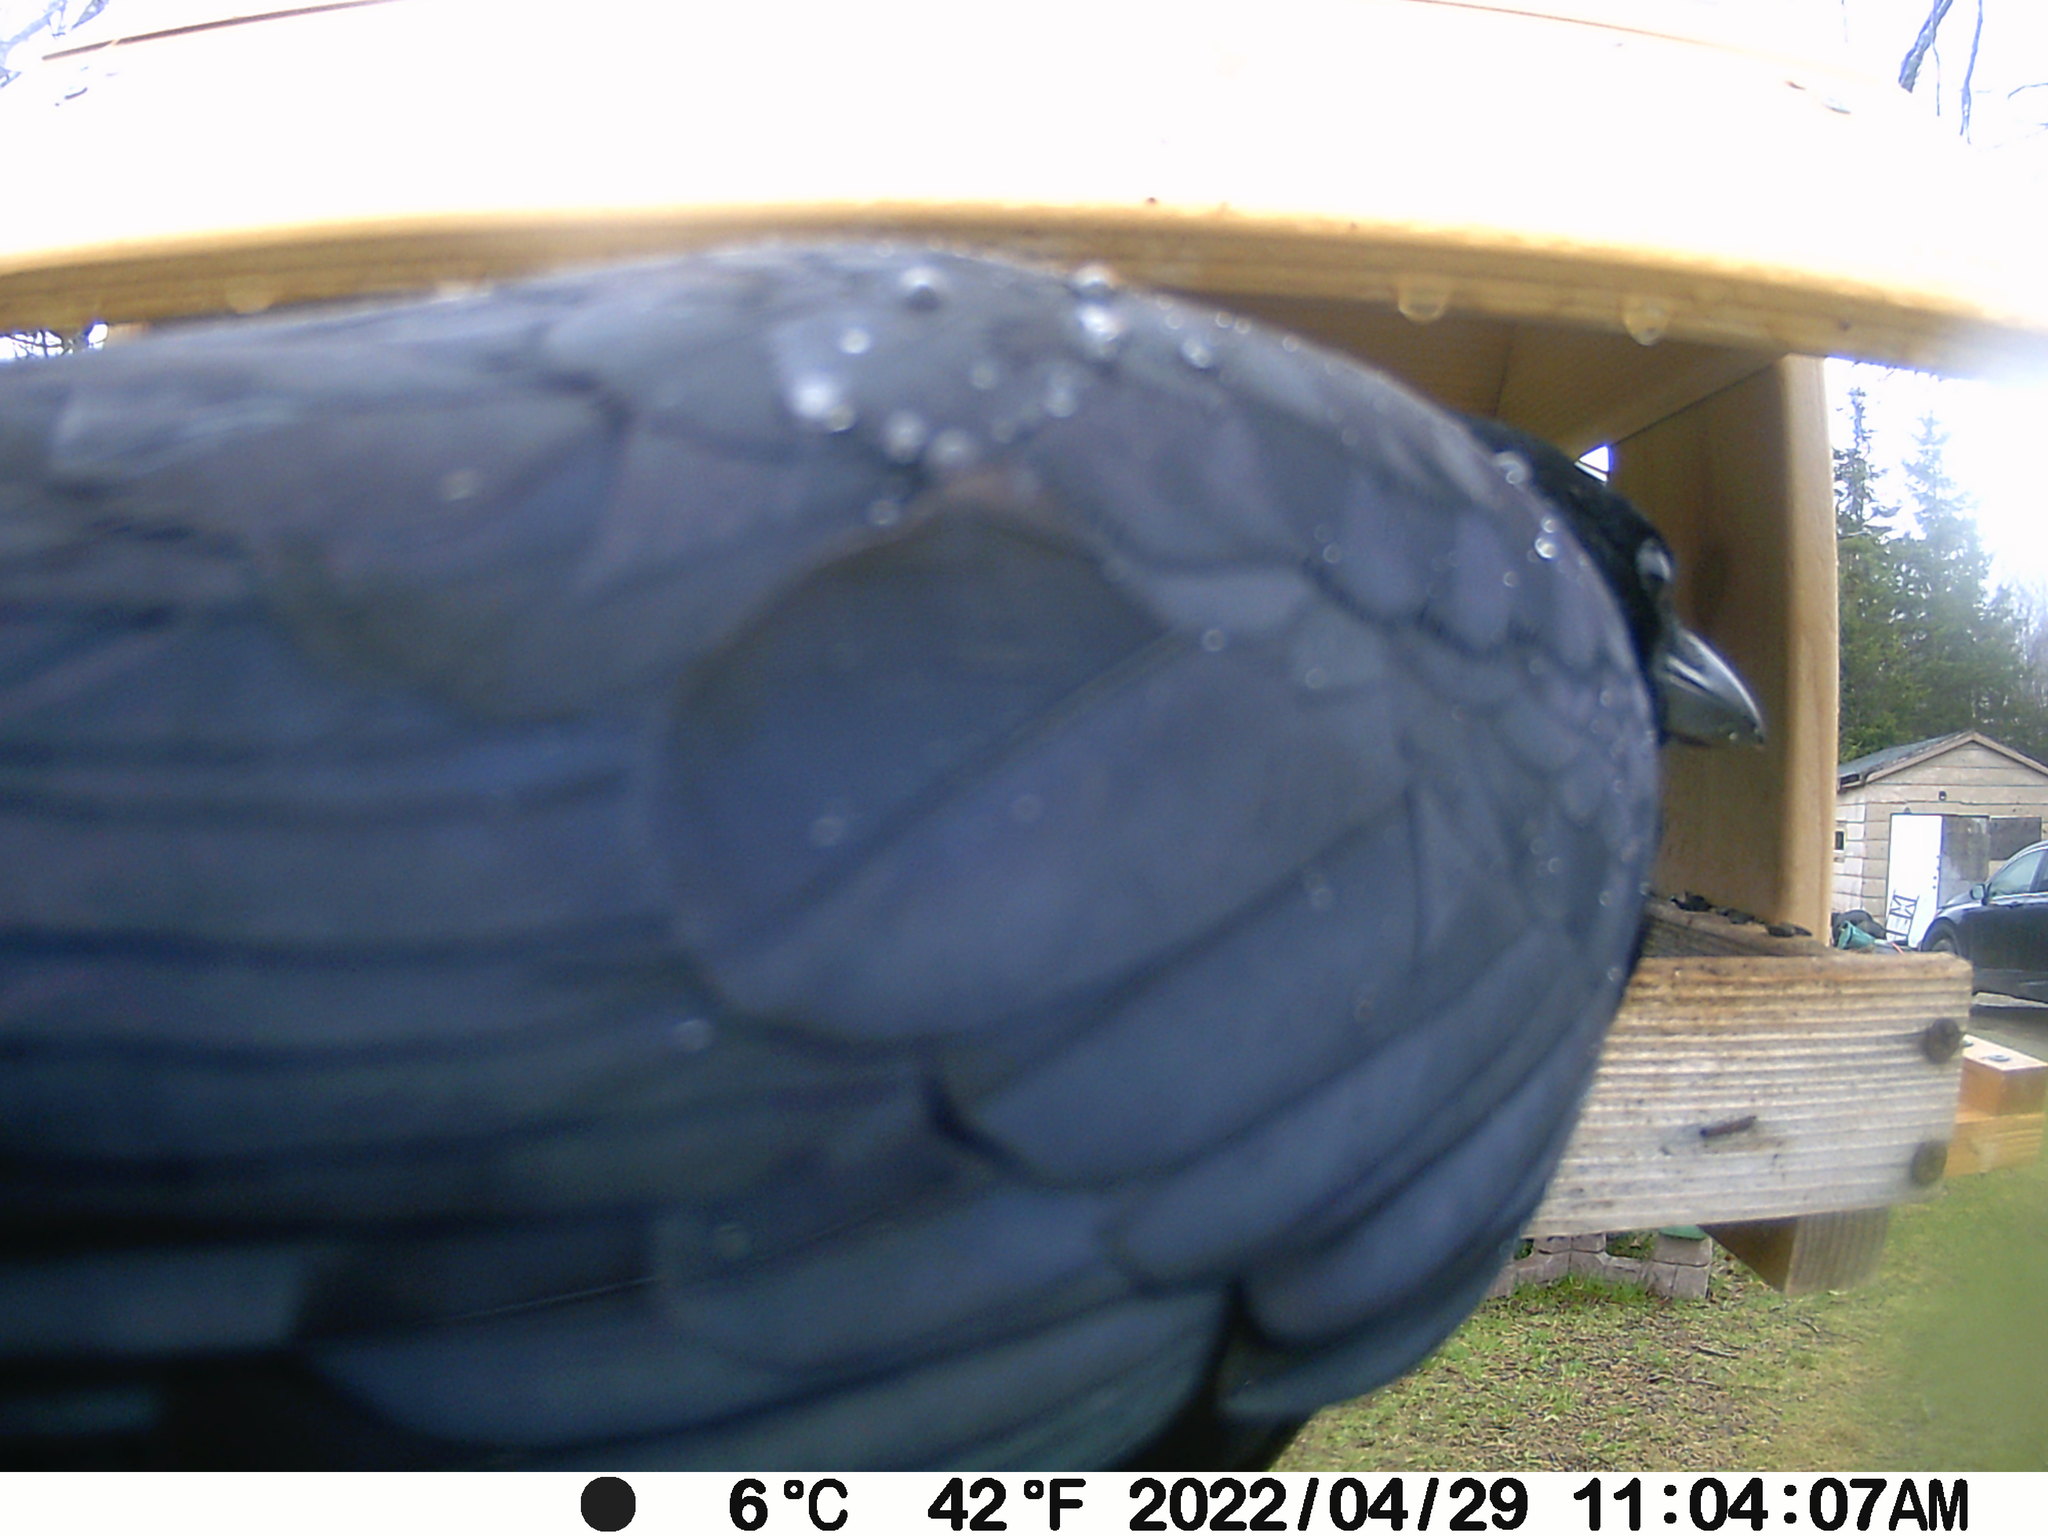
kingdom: Animalia
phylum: Chordata
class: Aves
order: Passeriformes
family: Corvidae
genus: Corvus
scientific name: Corvus brachyrhynchos
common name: American crow
